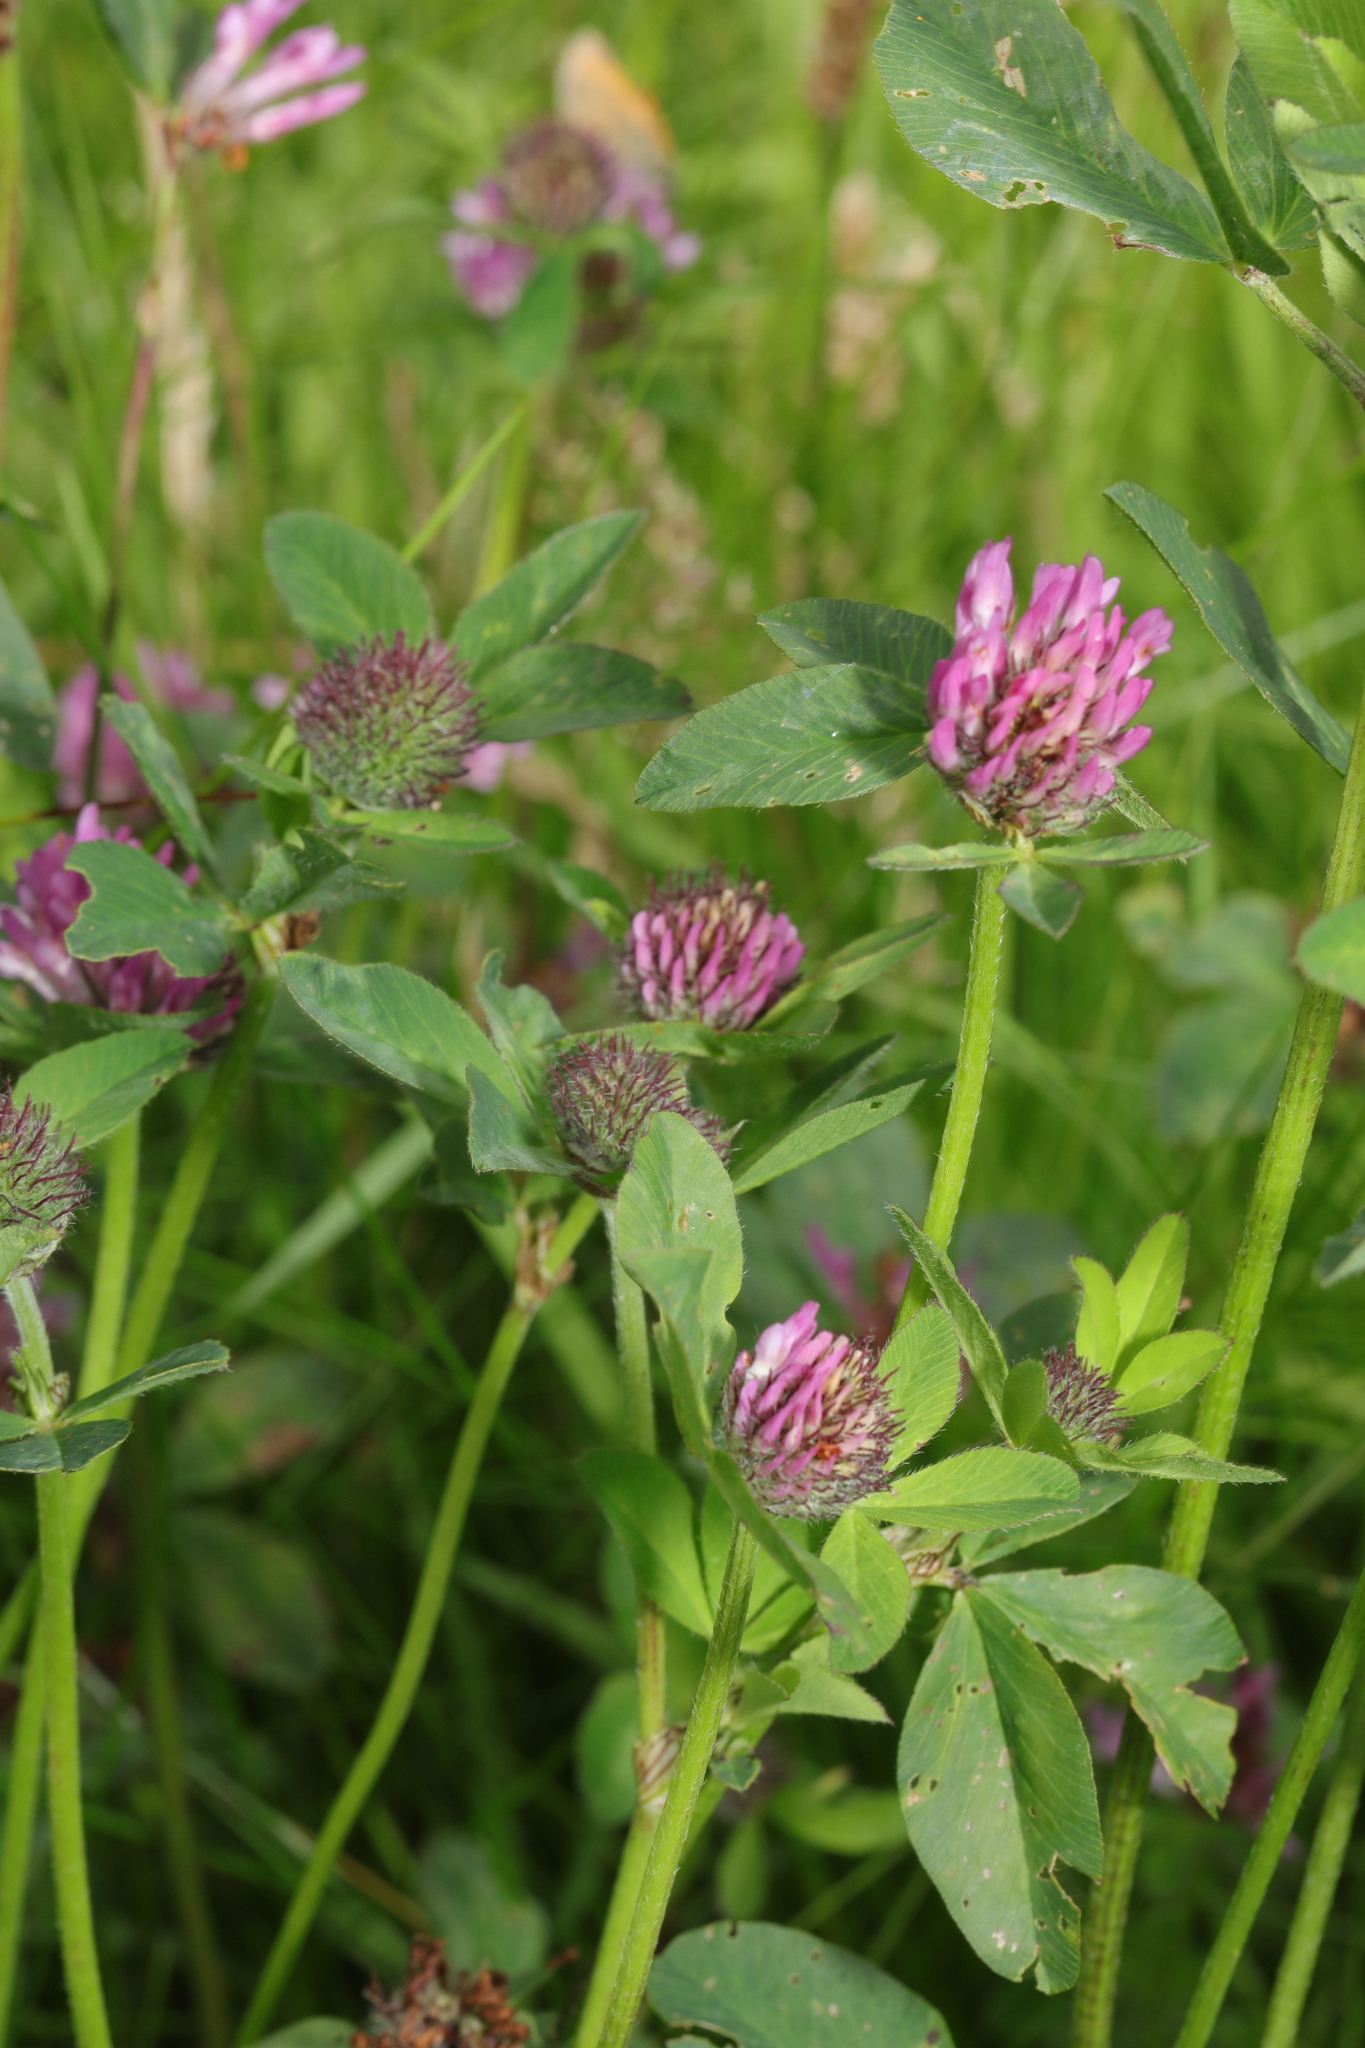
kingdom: Plantae
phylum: Tracheophyta
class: Magnoliopsida
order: Fabales
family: Fabaceae
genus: Trifolium
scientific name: Trifolium pratense
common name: Red clover
